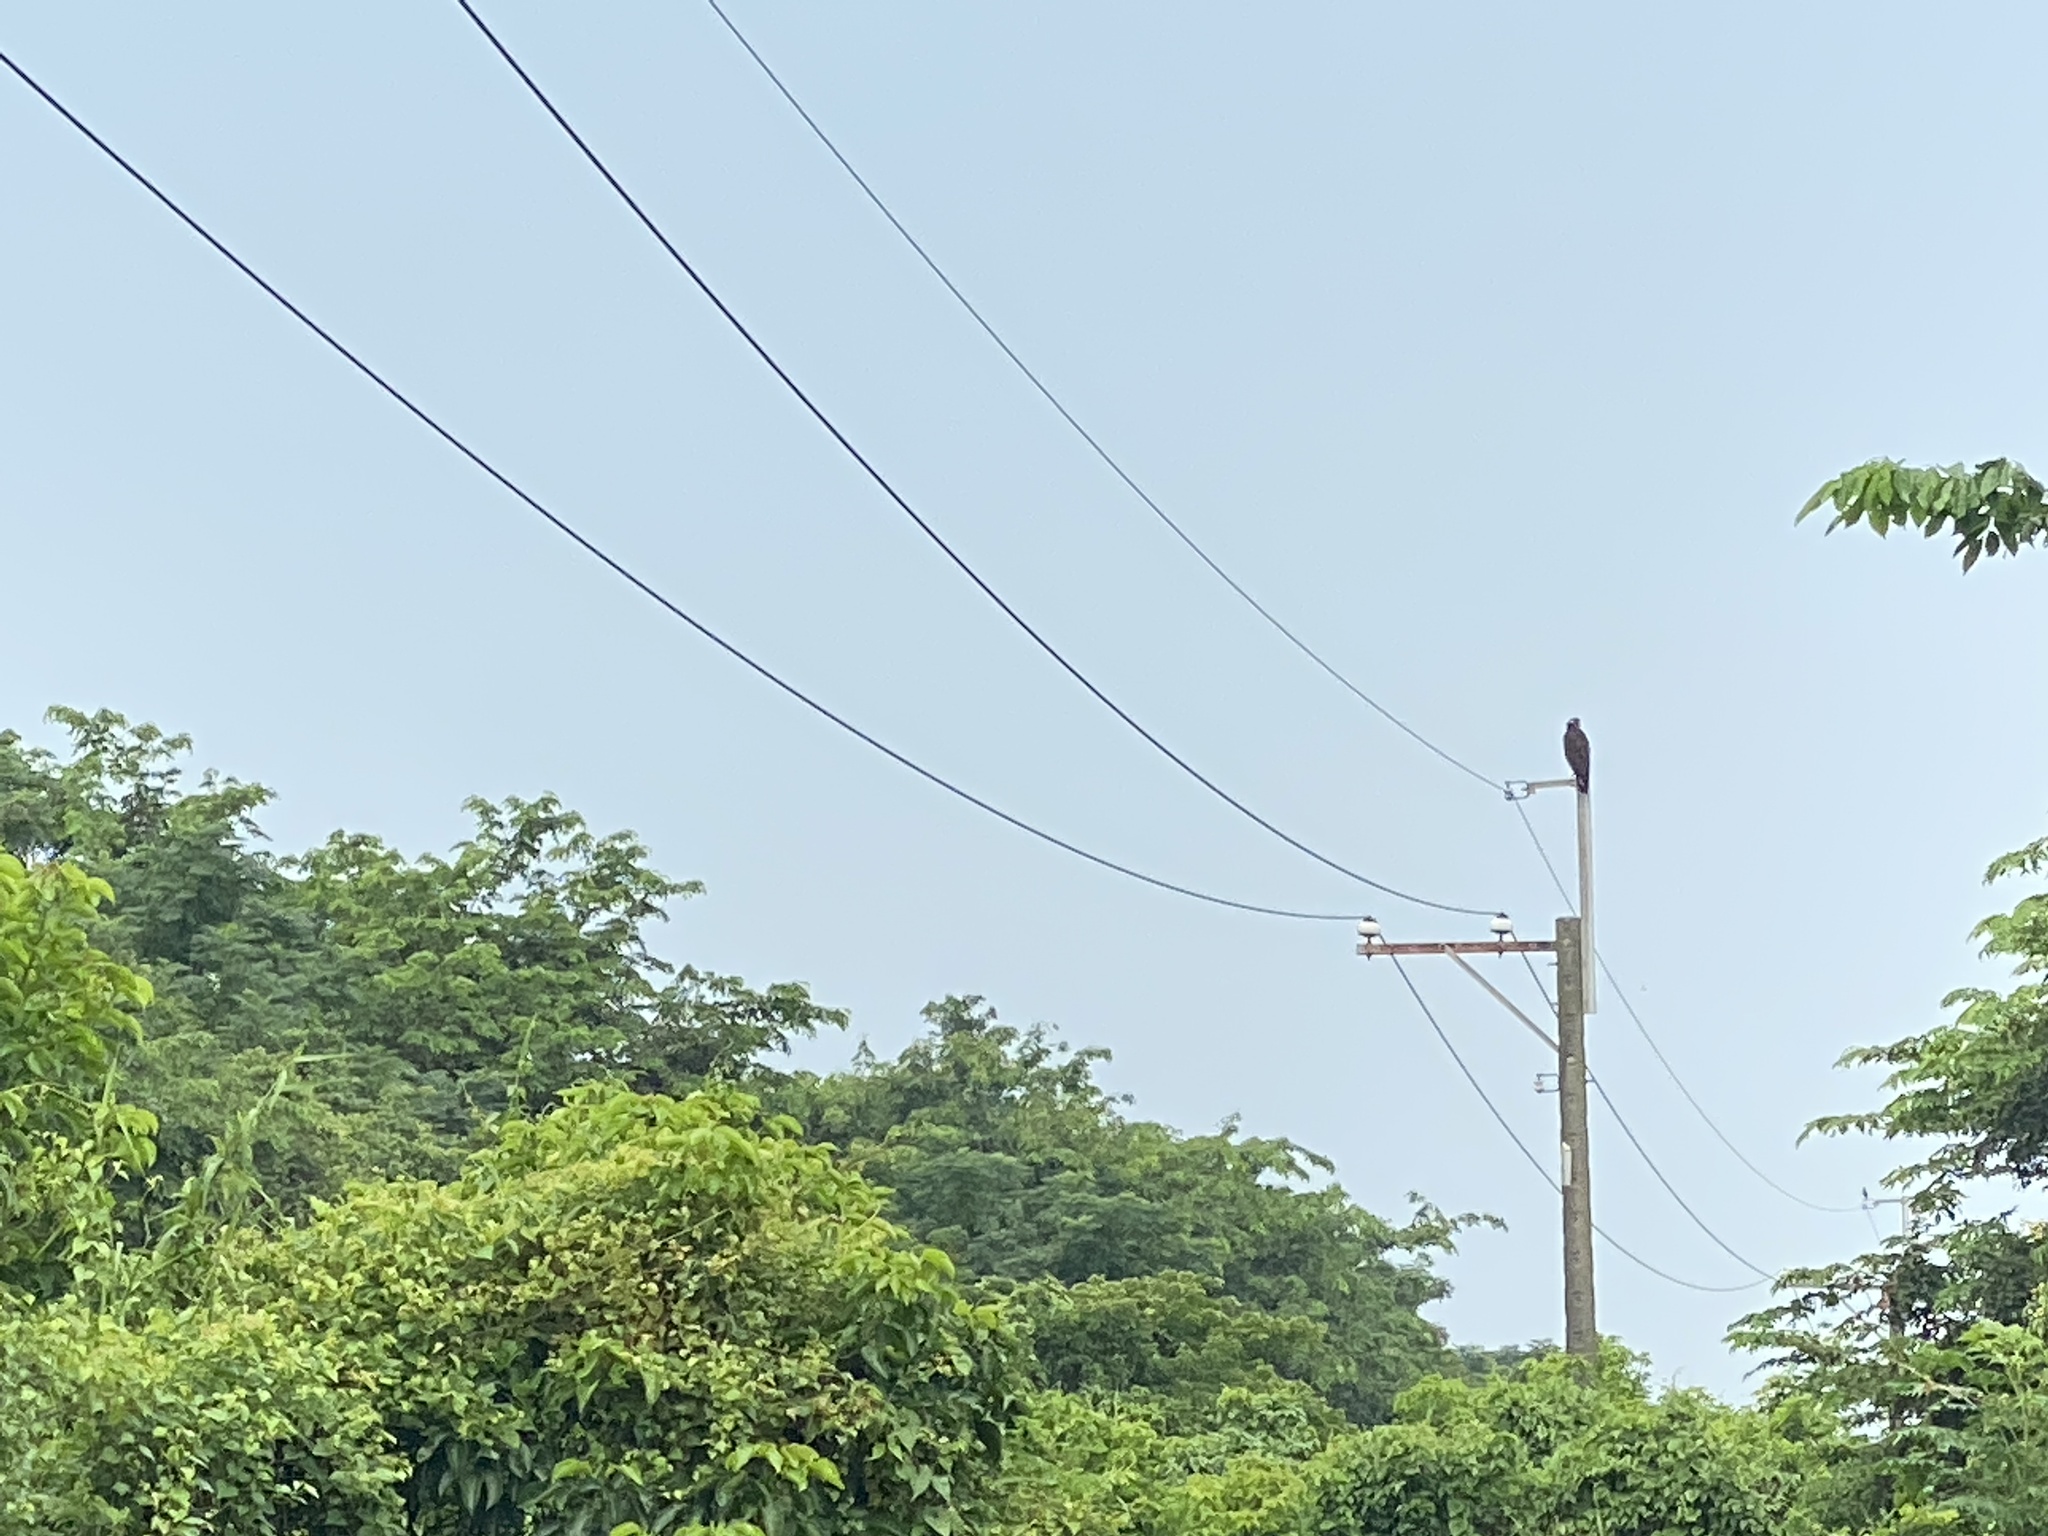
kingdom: Animalia
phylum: Chordata
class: Aves
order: Accipitriformes
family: Accipitridae
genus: Spilornis
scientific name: Spilornis cheela
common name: Crested serpent eagle
